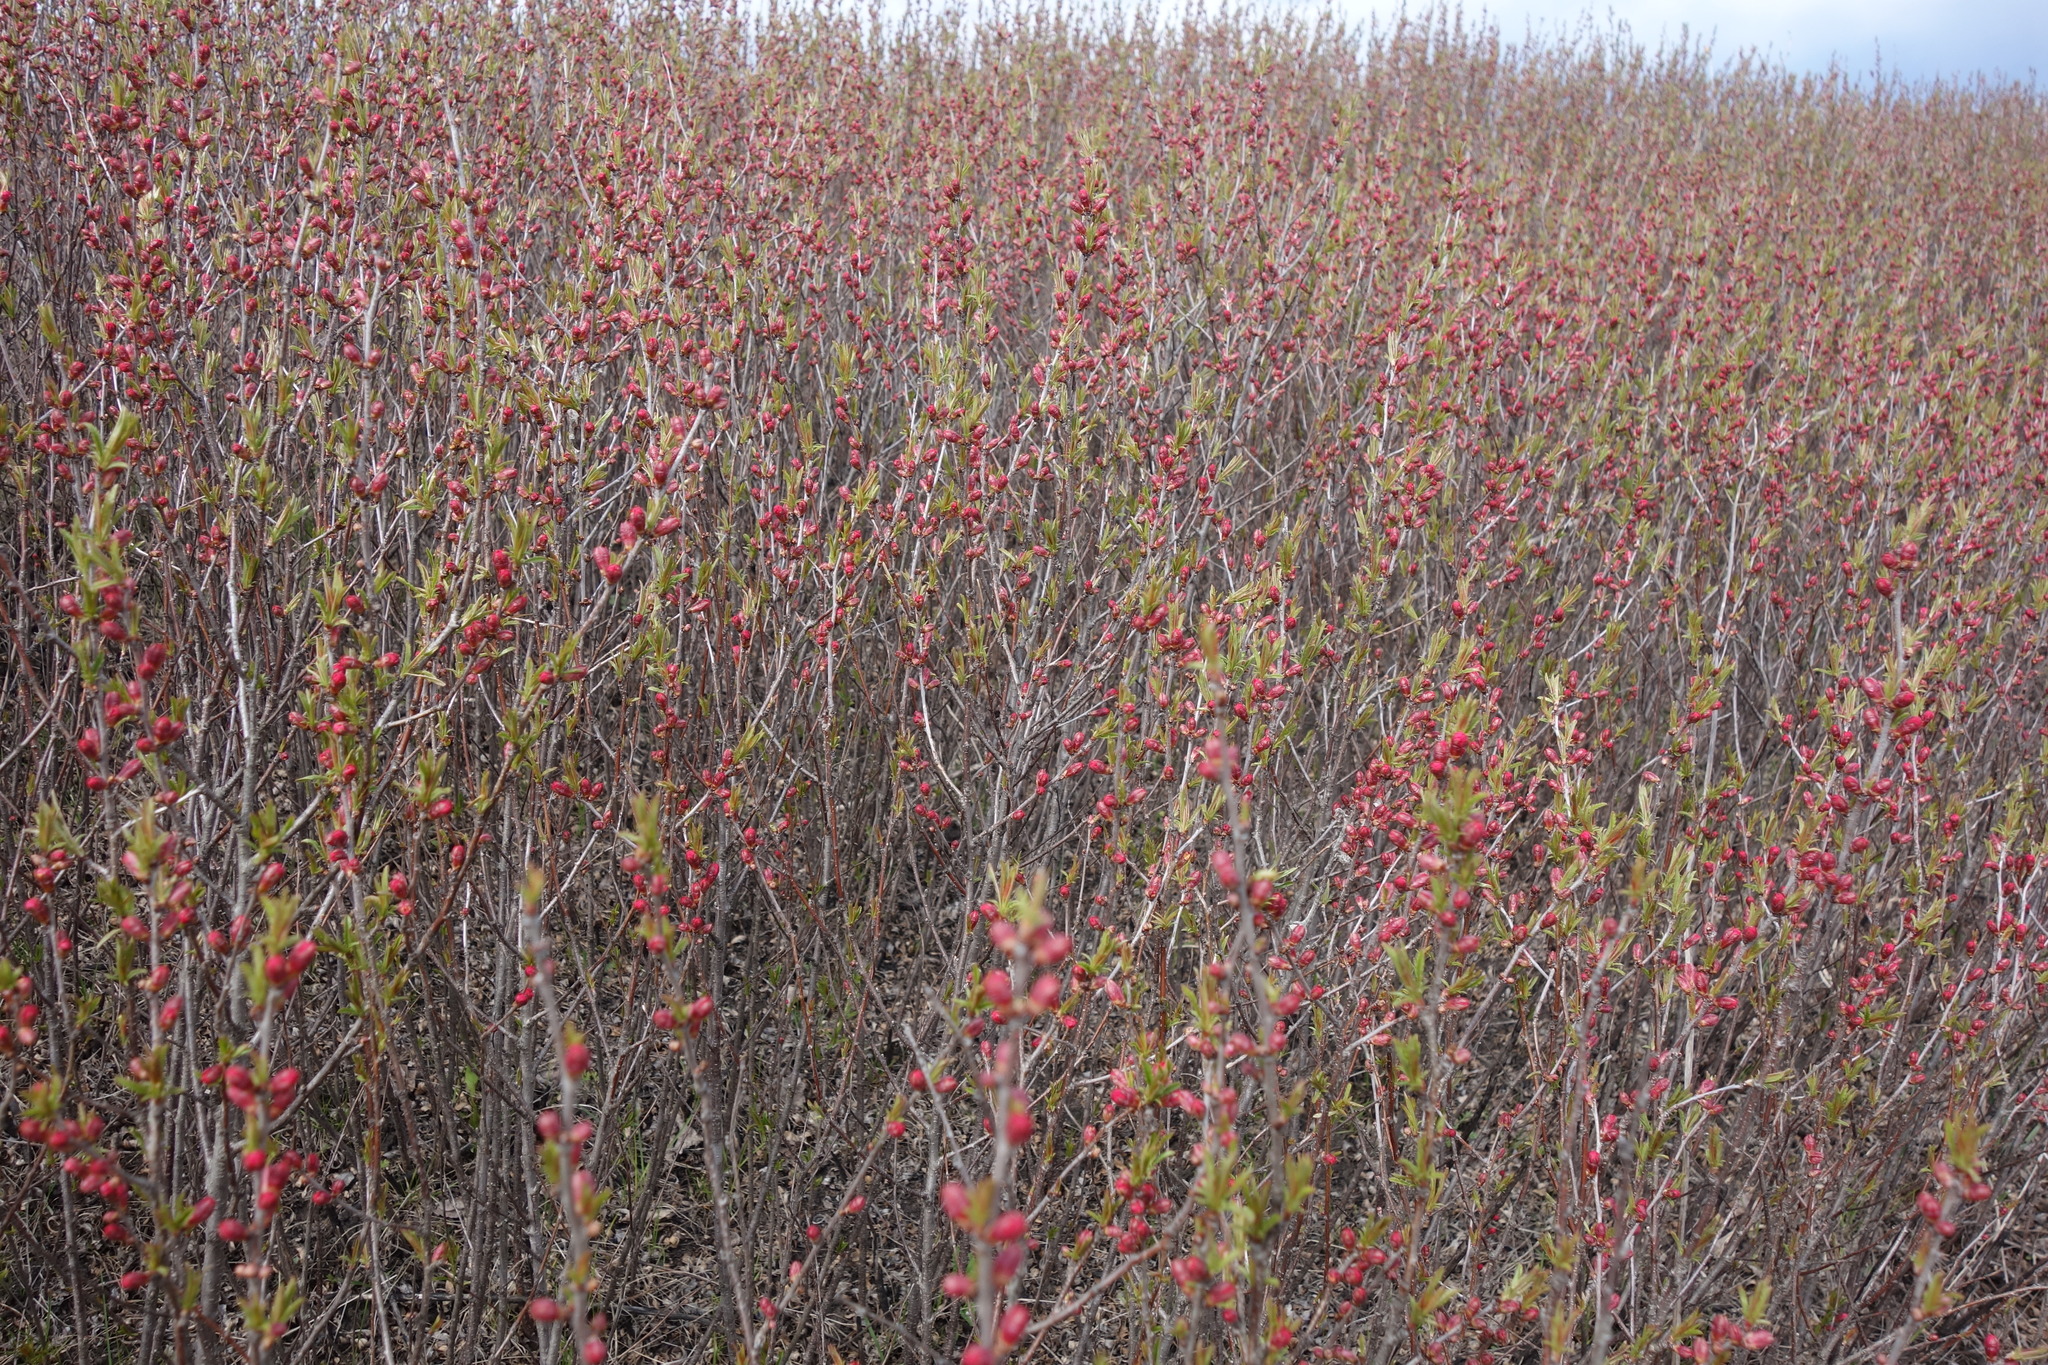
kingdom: Plantae
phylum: Tracheophyta
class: Magnoliopsida
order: Rosales
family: Rosaceae
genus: Prunus
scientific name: Prunus tenella
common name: Dwarf russian almond
